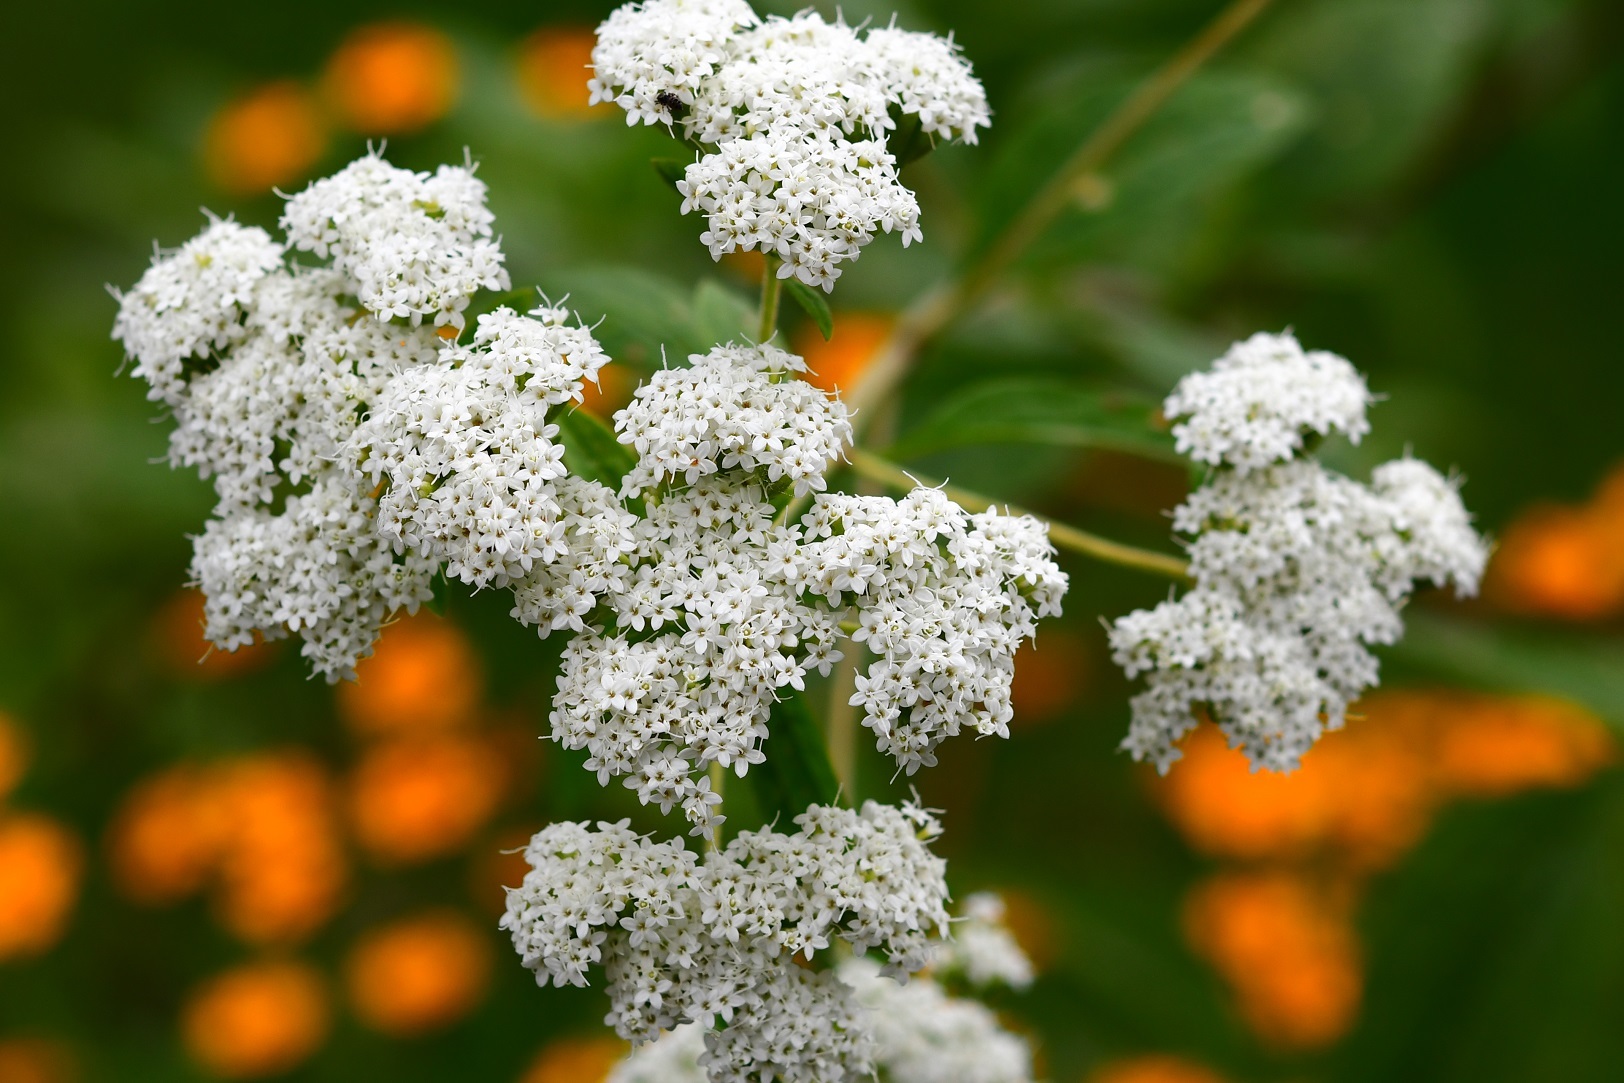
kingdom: Plantae
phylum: Tracheophyta
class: Magnoliopsida
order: Asterales
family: Asteraceae
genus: Stevia
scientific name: Stevia ovata
